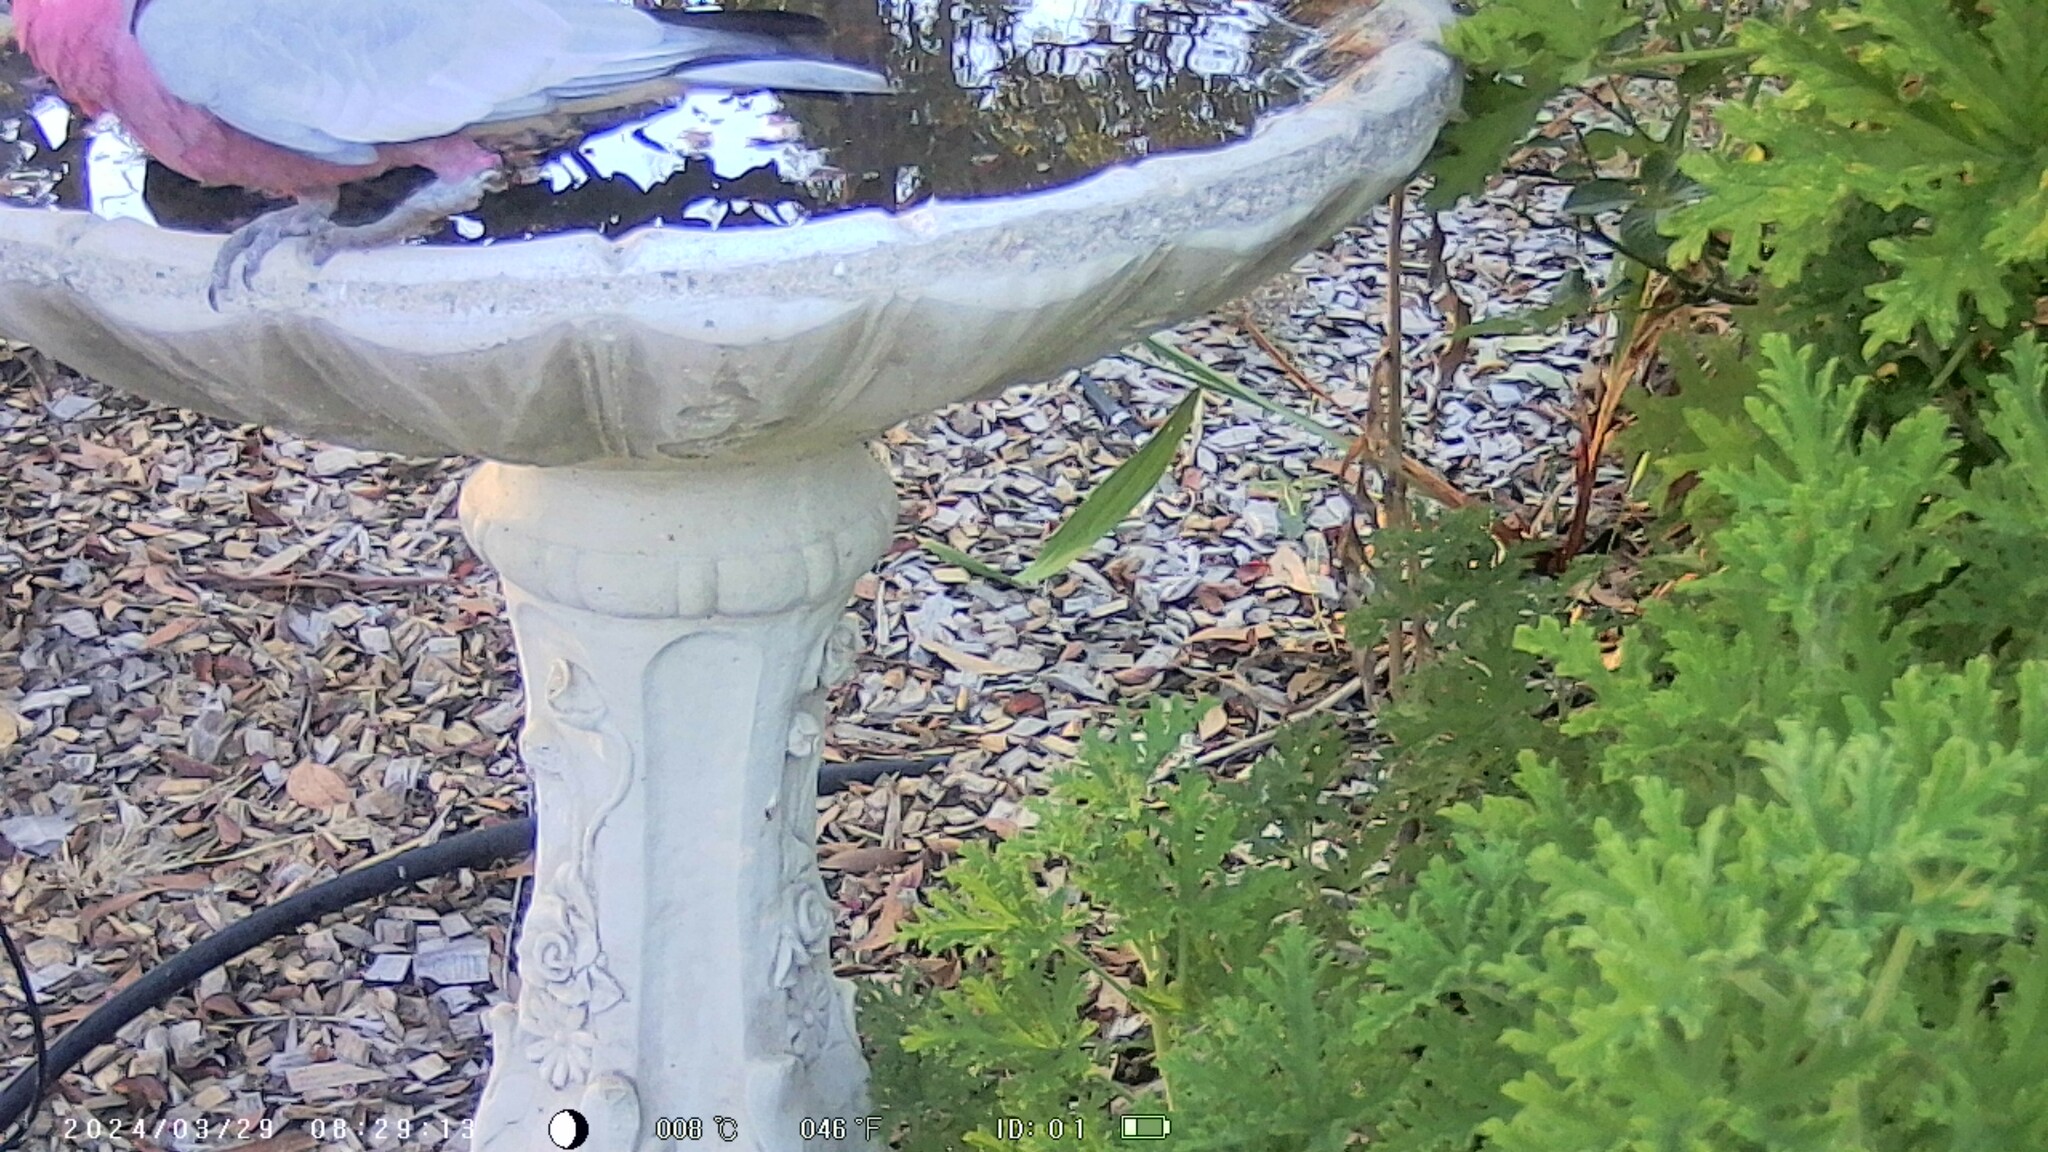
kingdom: Animalia
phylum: Chordata
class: Aves
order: Psittaciformes
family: Psittacidae
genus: Eolophus
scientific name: Eolophus roseicapilla
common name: Galah
